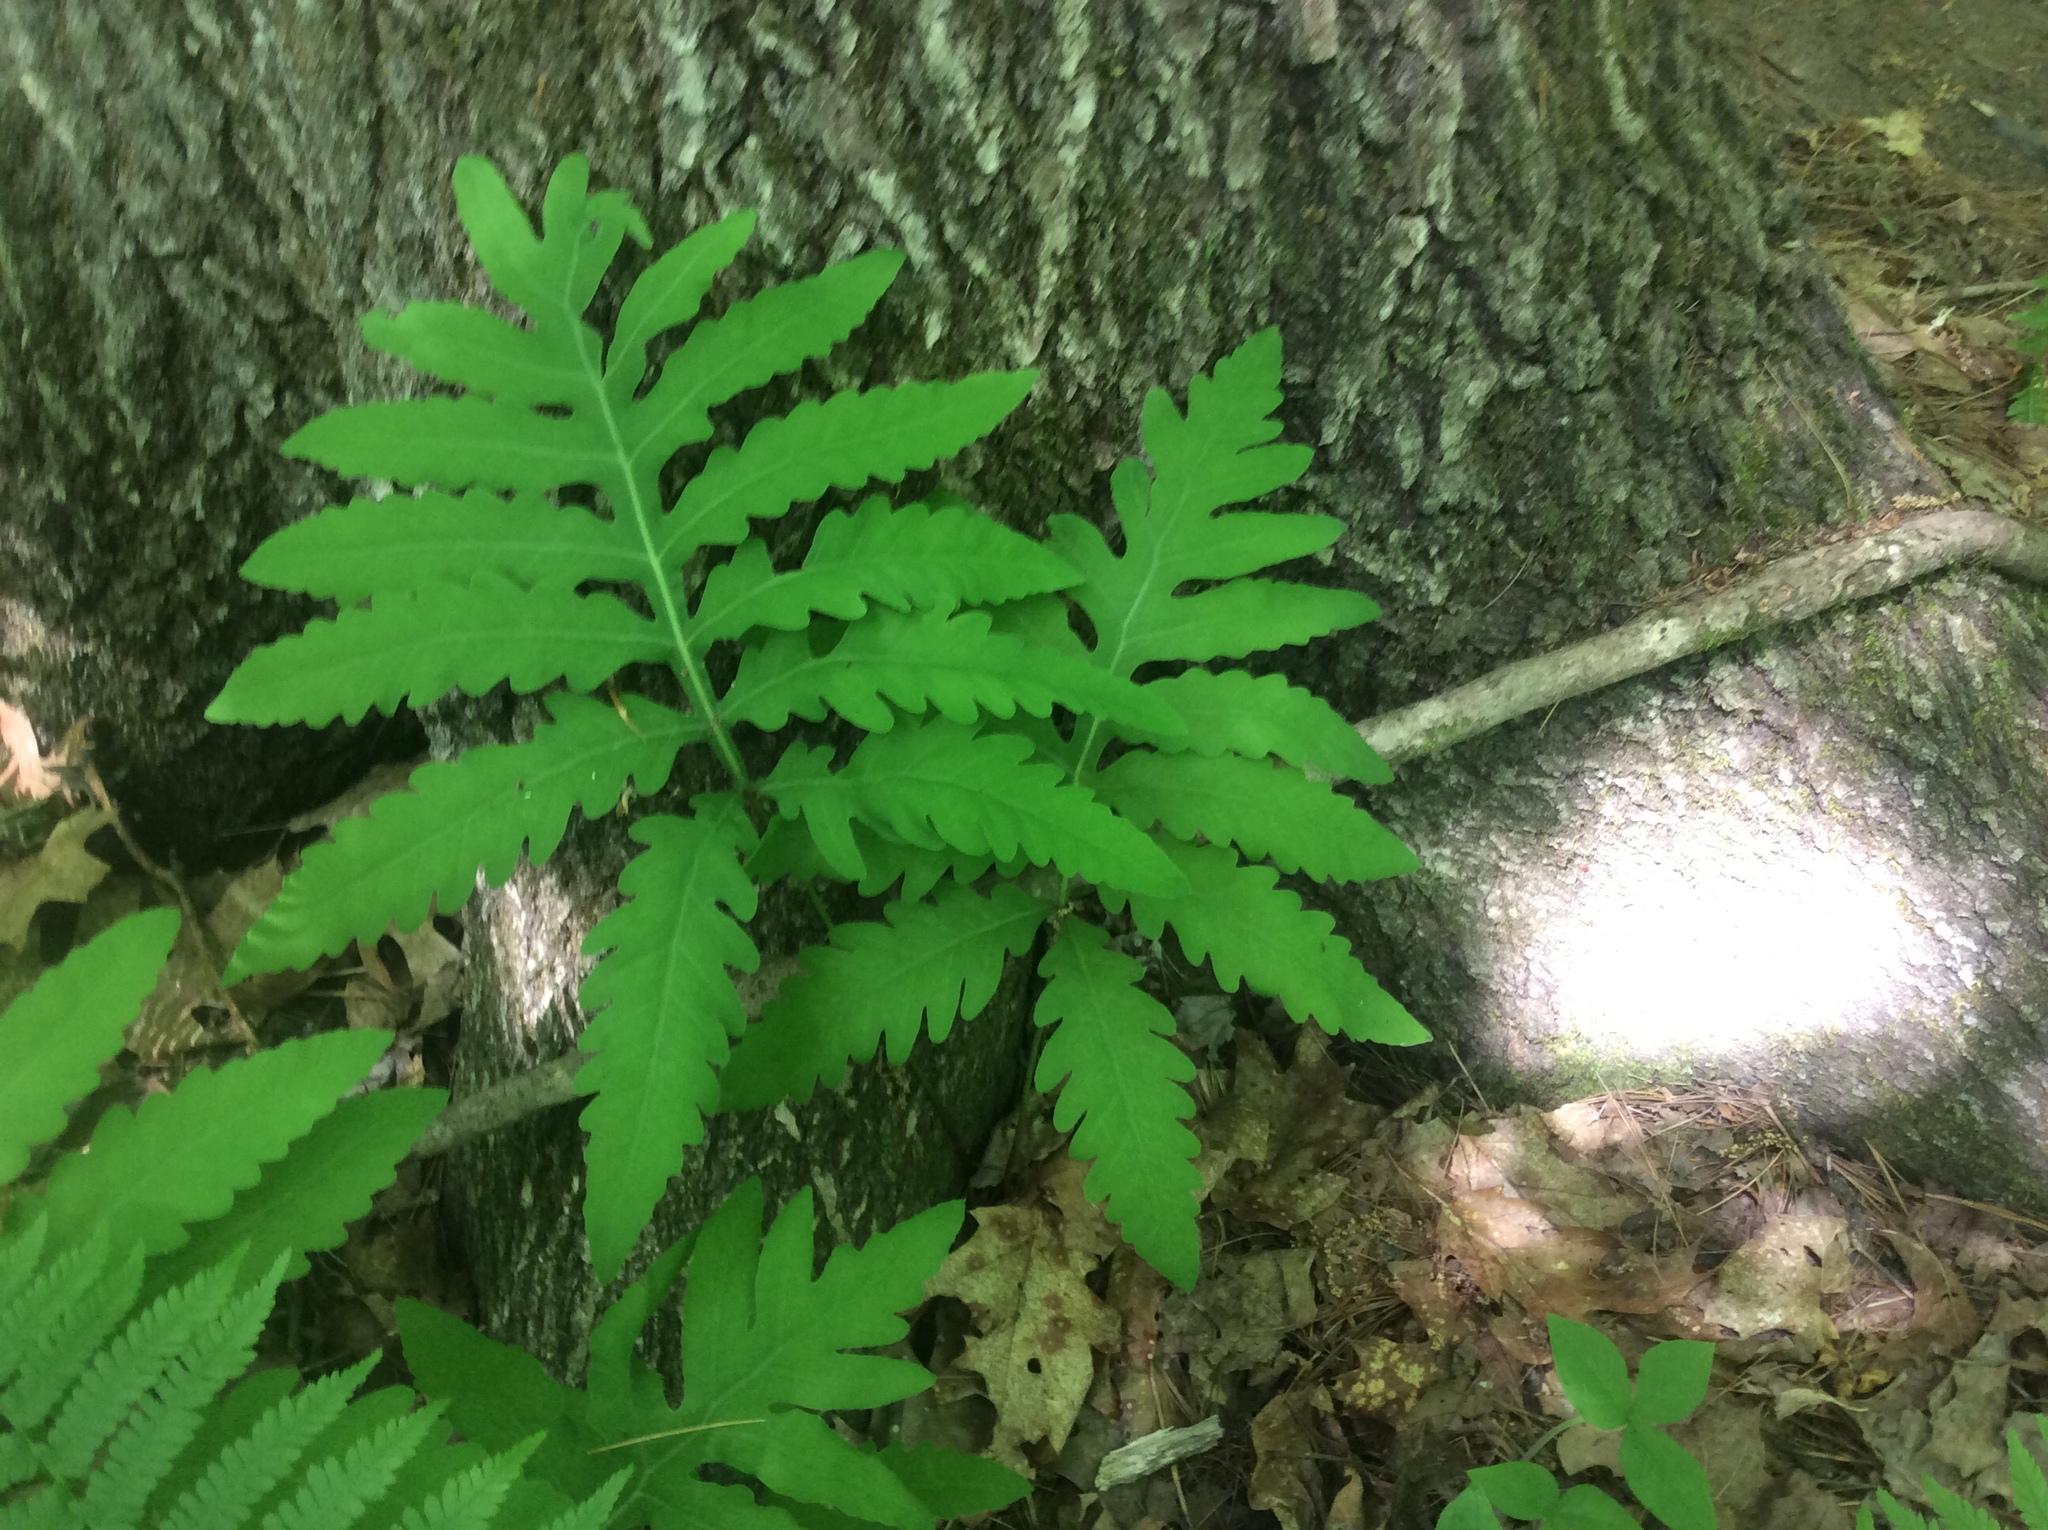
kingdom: Plantae
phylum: Tracheophyta
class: Polypodiopsida
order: Polypodiales
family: Onocleaceae
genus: Onoclea
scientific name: Onoclea sensibilis
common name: Sensitive fern
